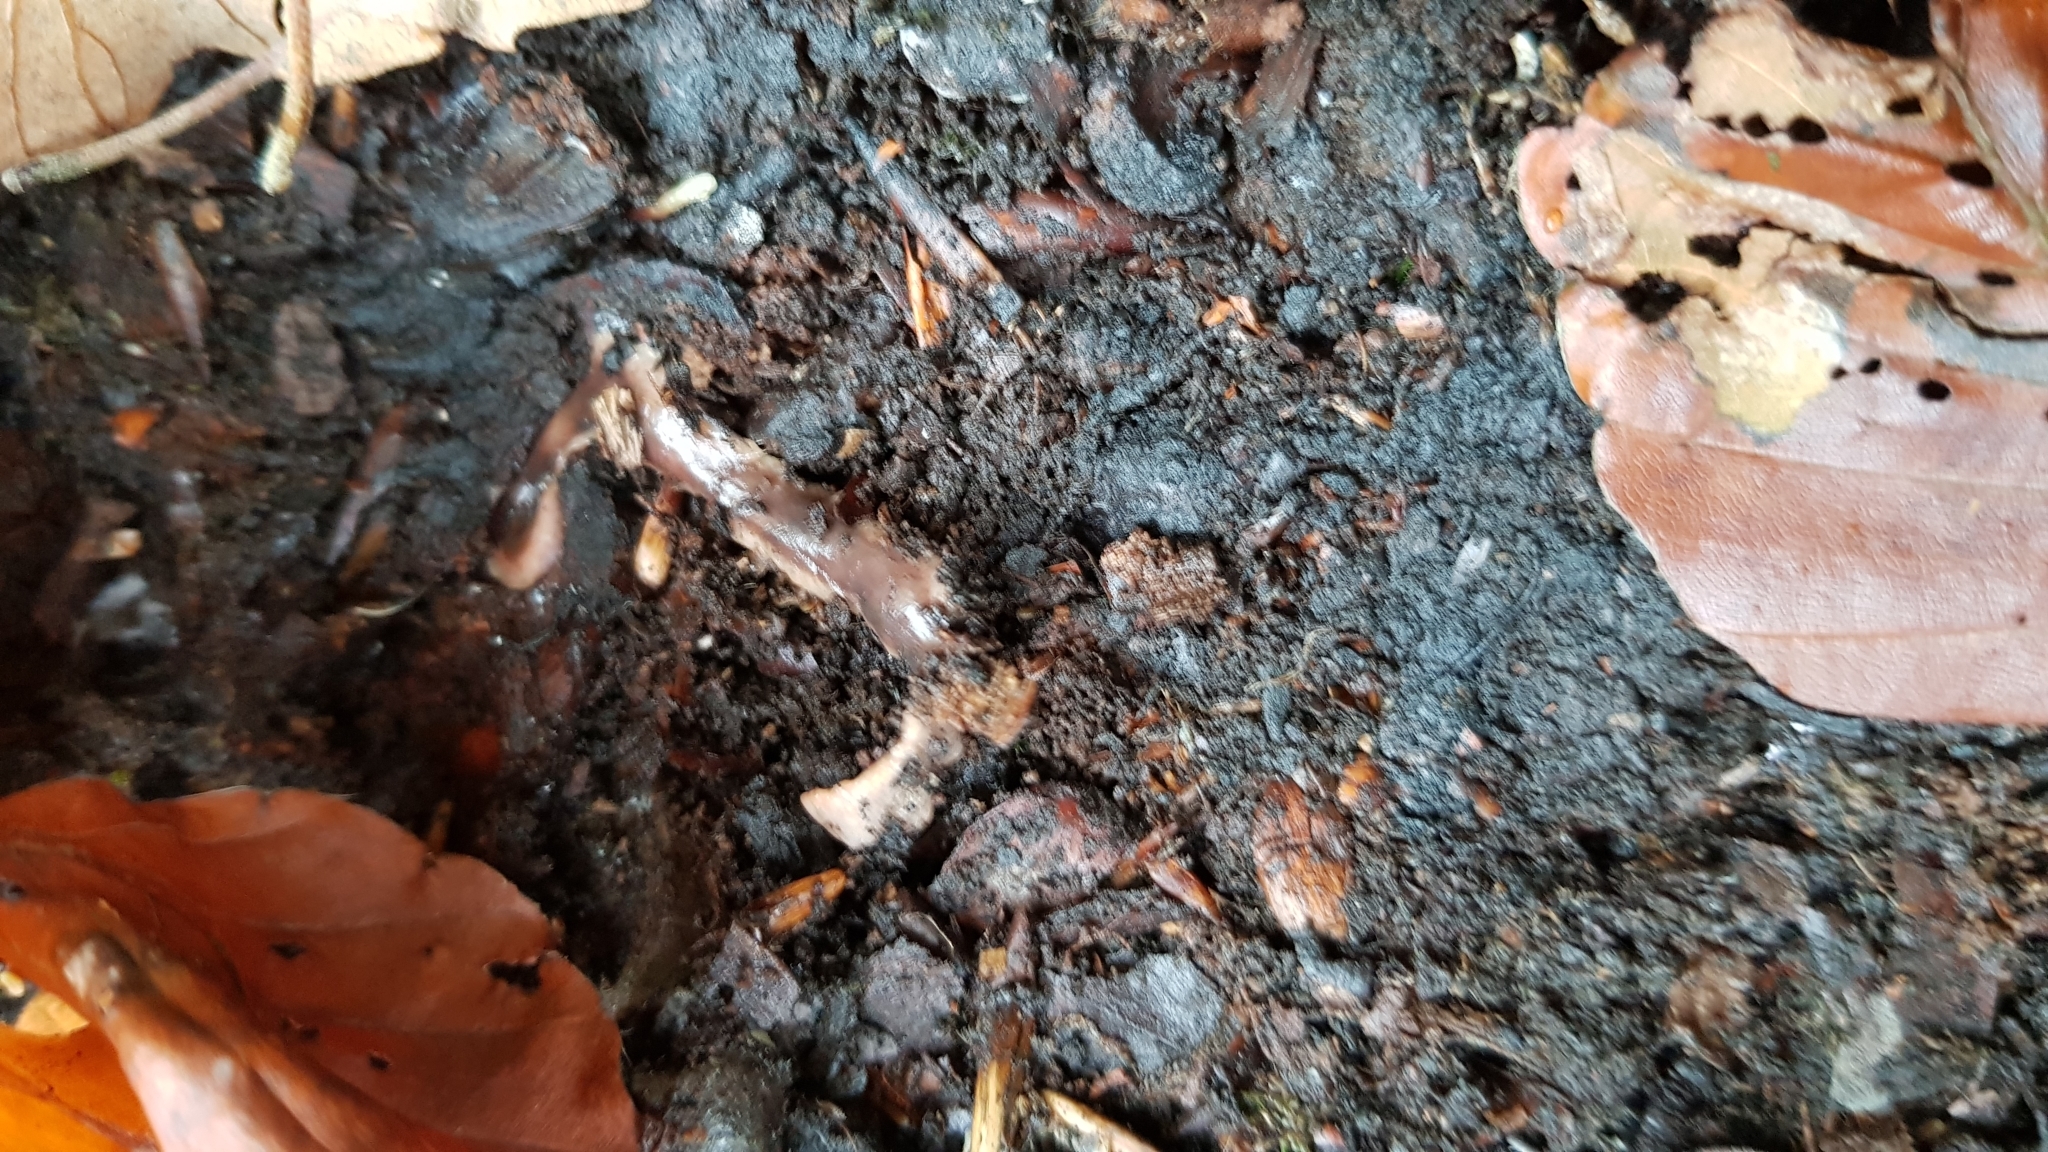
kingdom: Animalia
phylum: Platyhelminthes
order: Tricladida
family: Geoplanidae
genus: Arthurdendyus
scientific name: Arthurdendyus triangulatus
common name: New zealand flatworm
